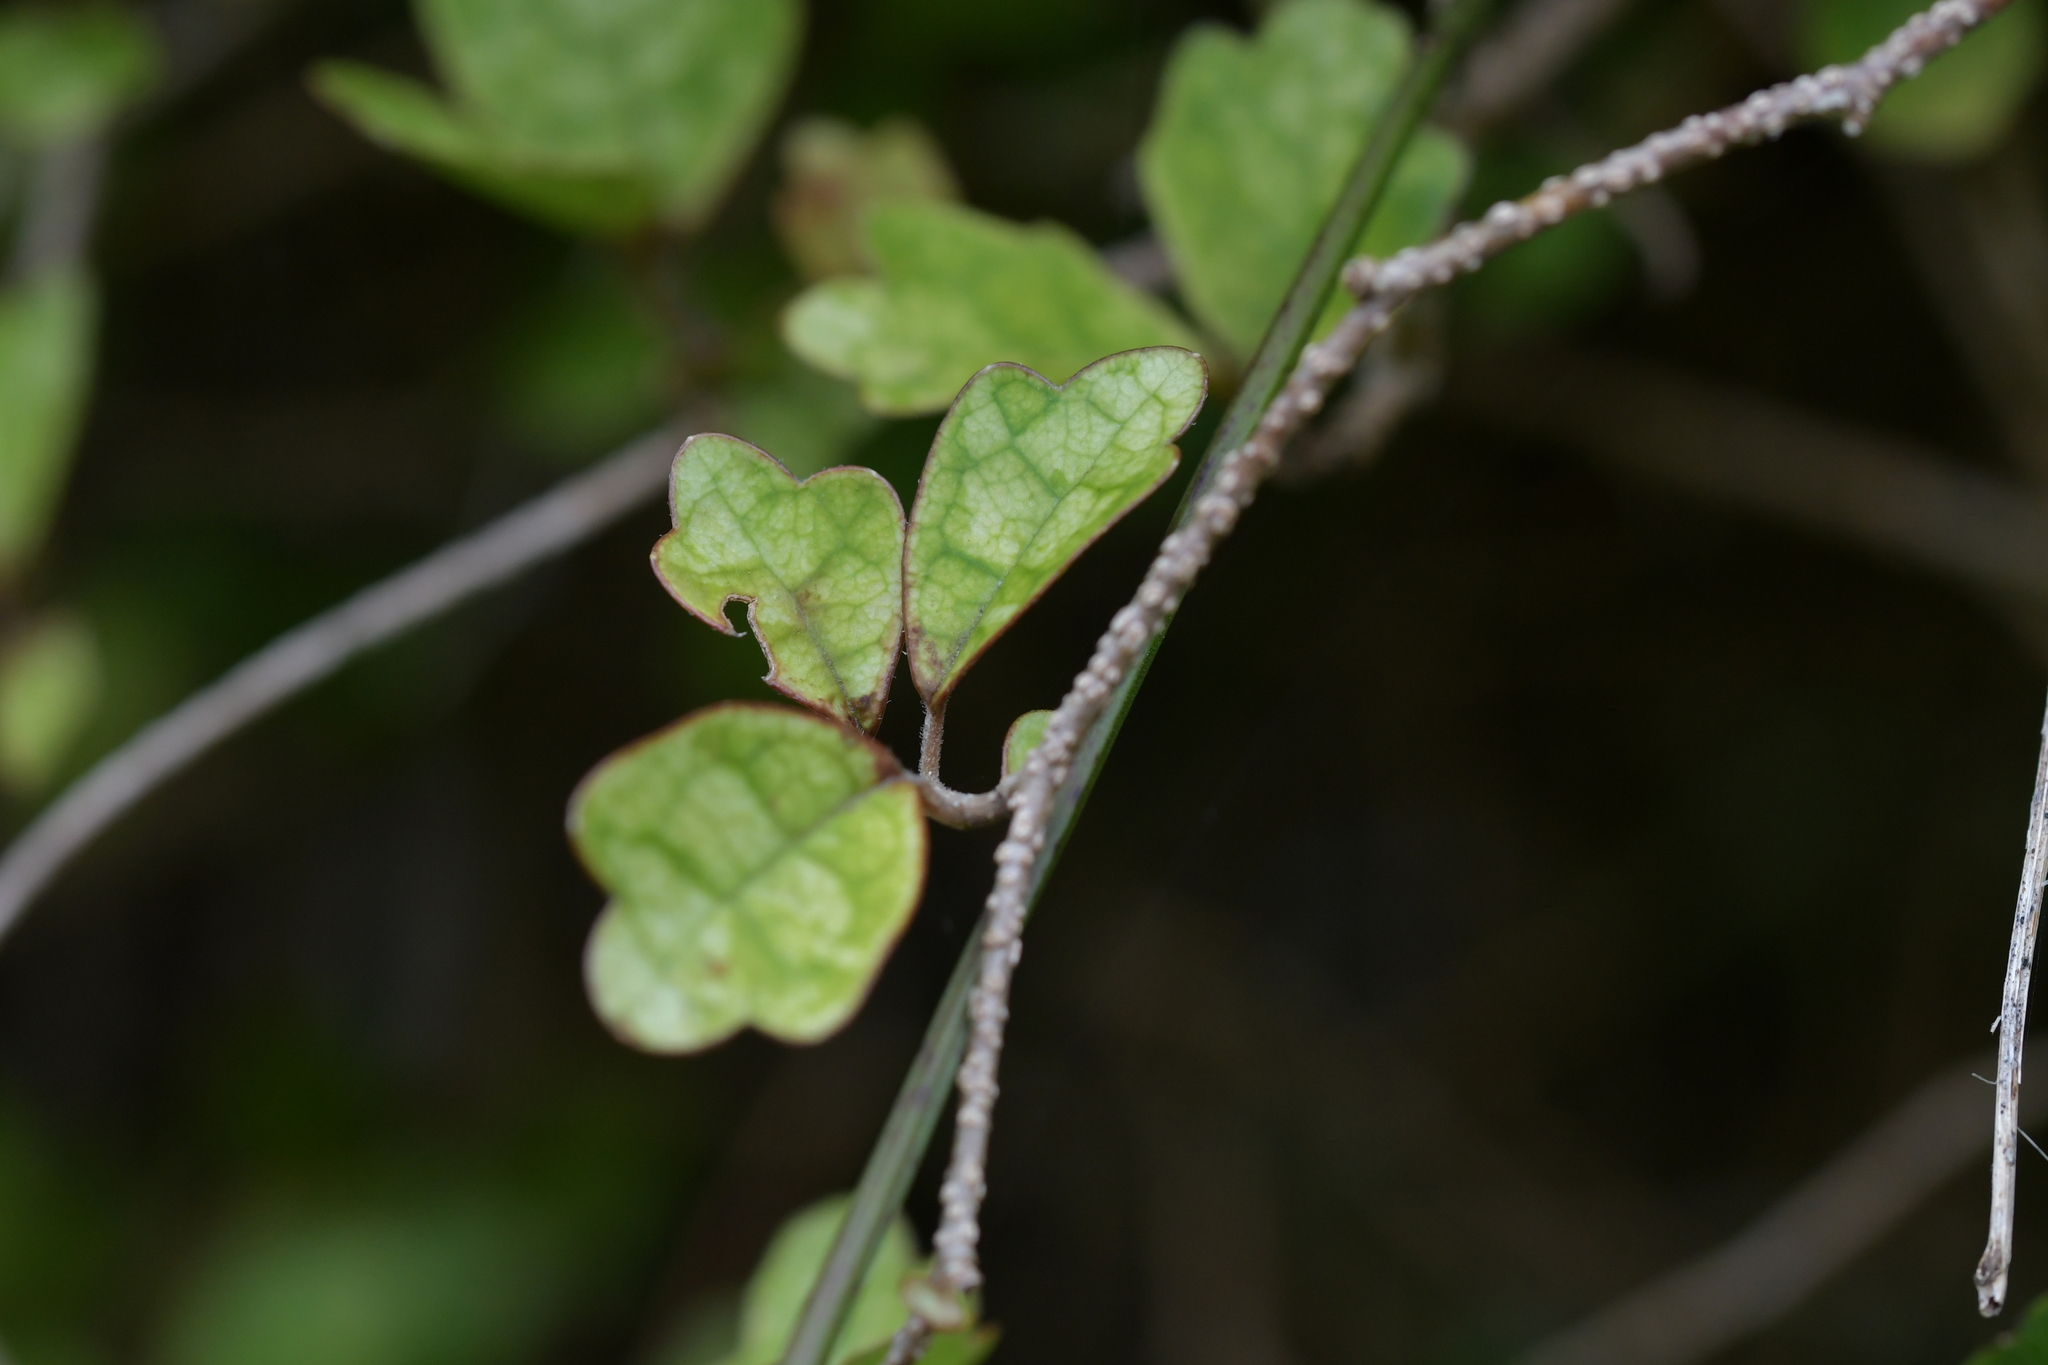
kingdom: Plantae
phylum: Tracheophyta
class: Magnoliopsida
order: Apiales
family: Pennantiaceae
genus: Pennantia
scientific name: Pennantia corymbosa
